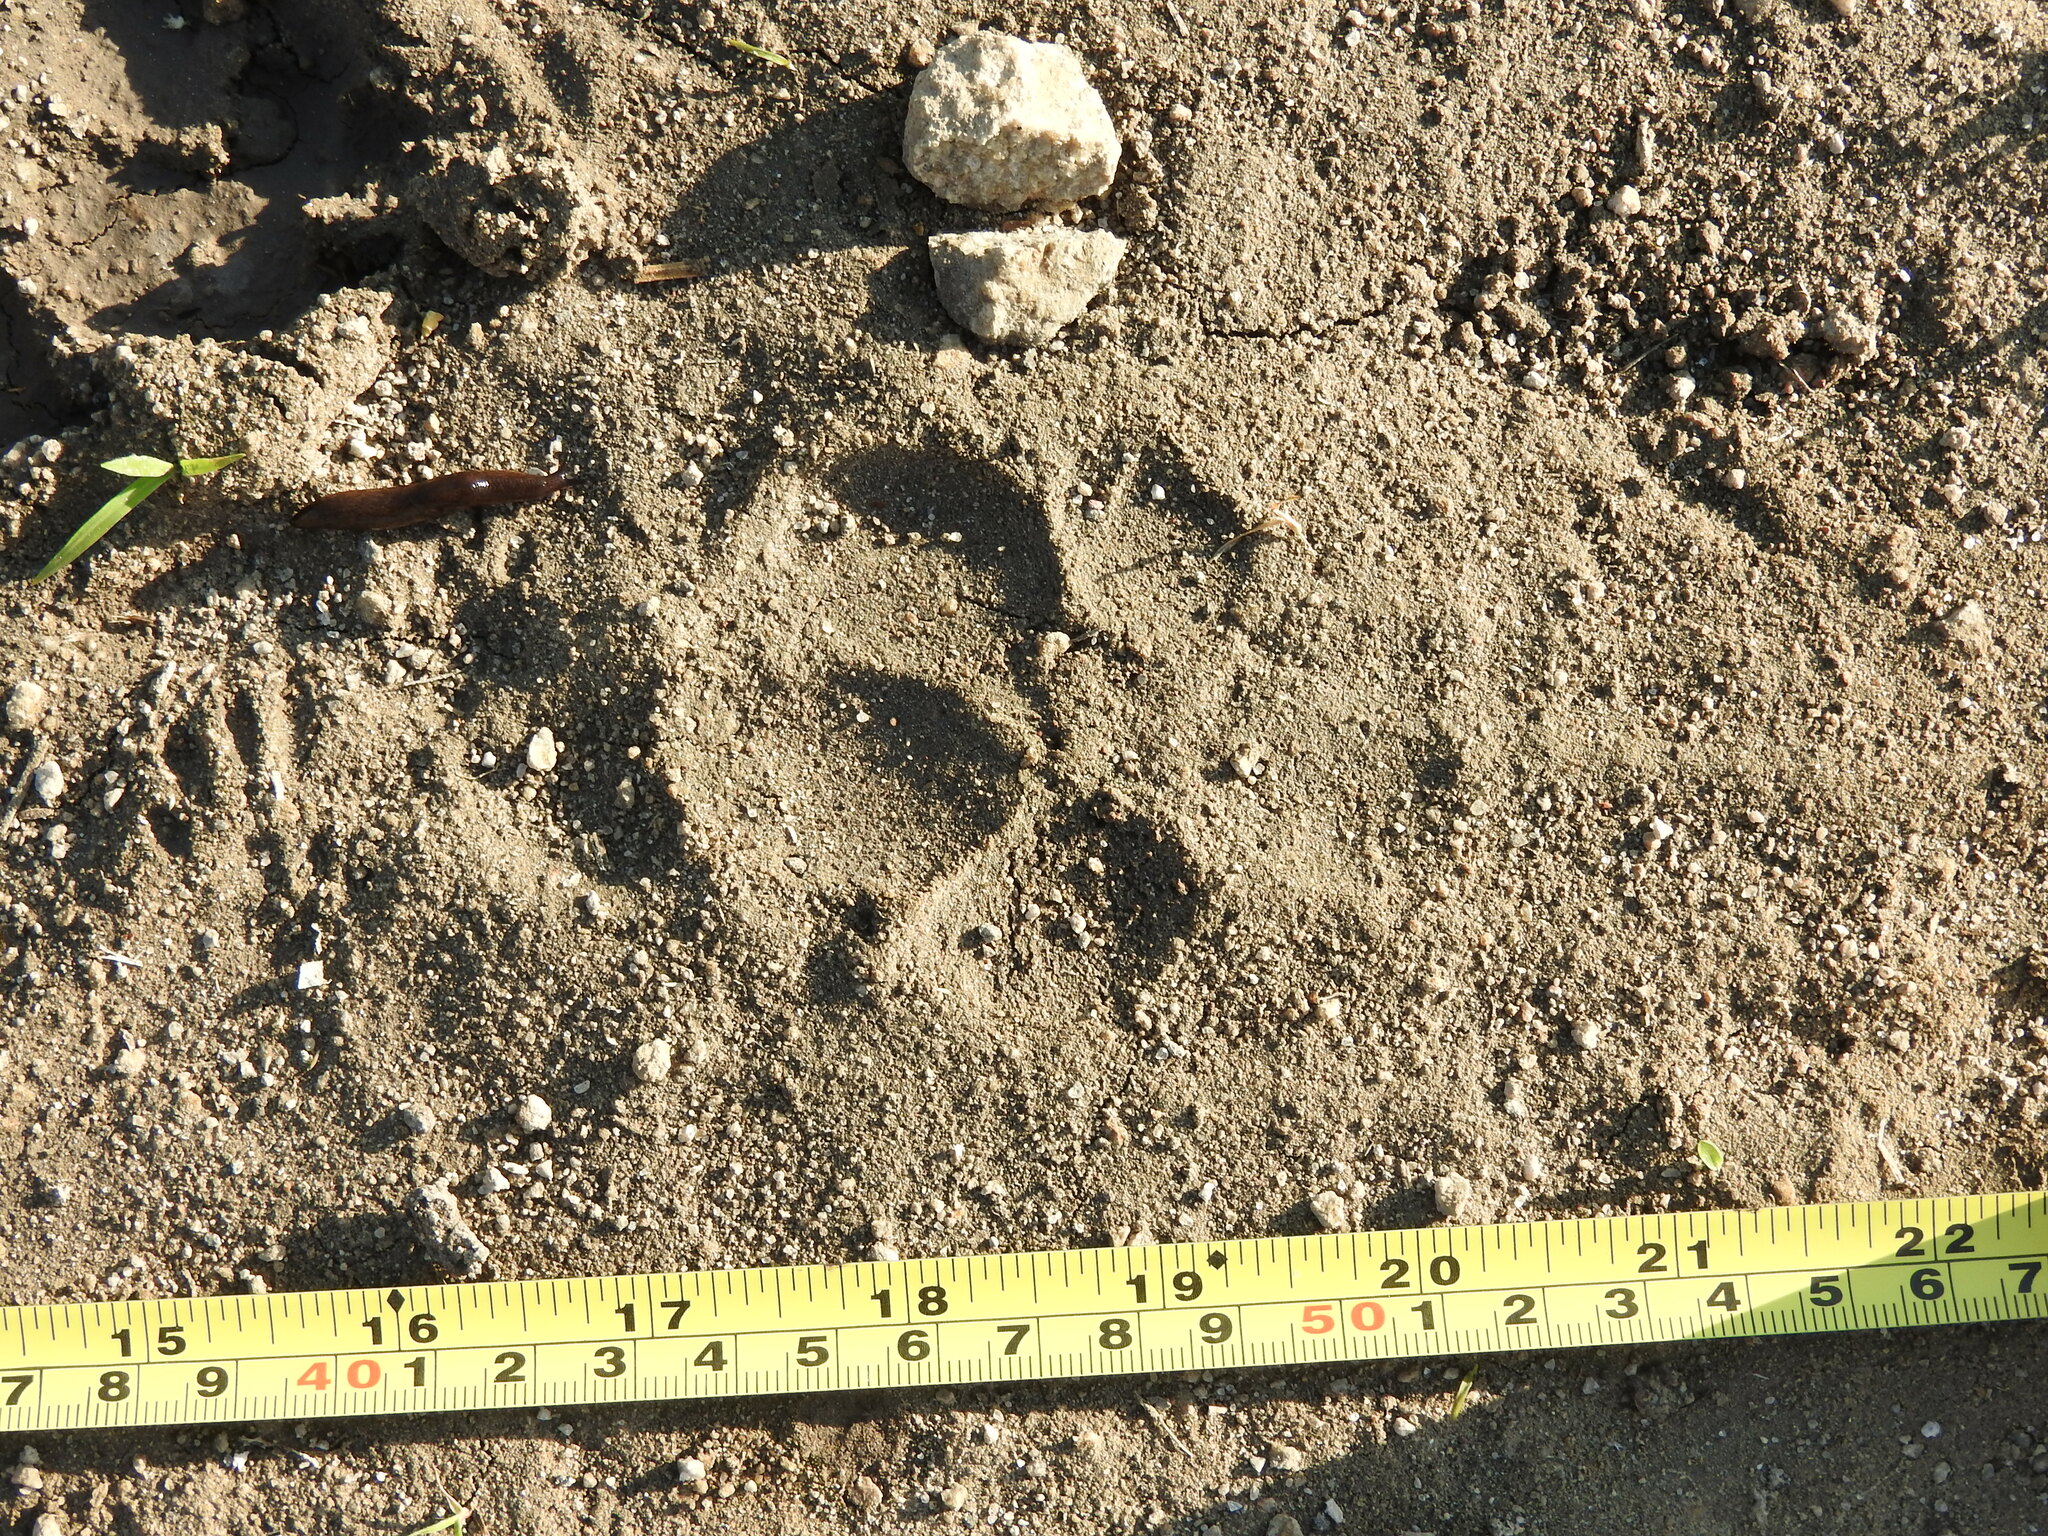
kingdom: Animalia
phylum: Chordata
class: Mammalia
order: Rodentia
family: Sciuridae
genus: Otospermophilus
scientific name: Otospermophilus variegatus
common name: Rock squirrel
